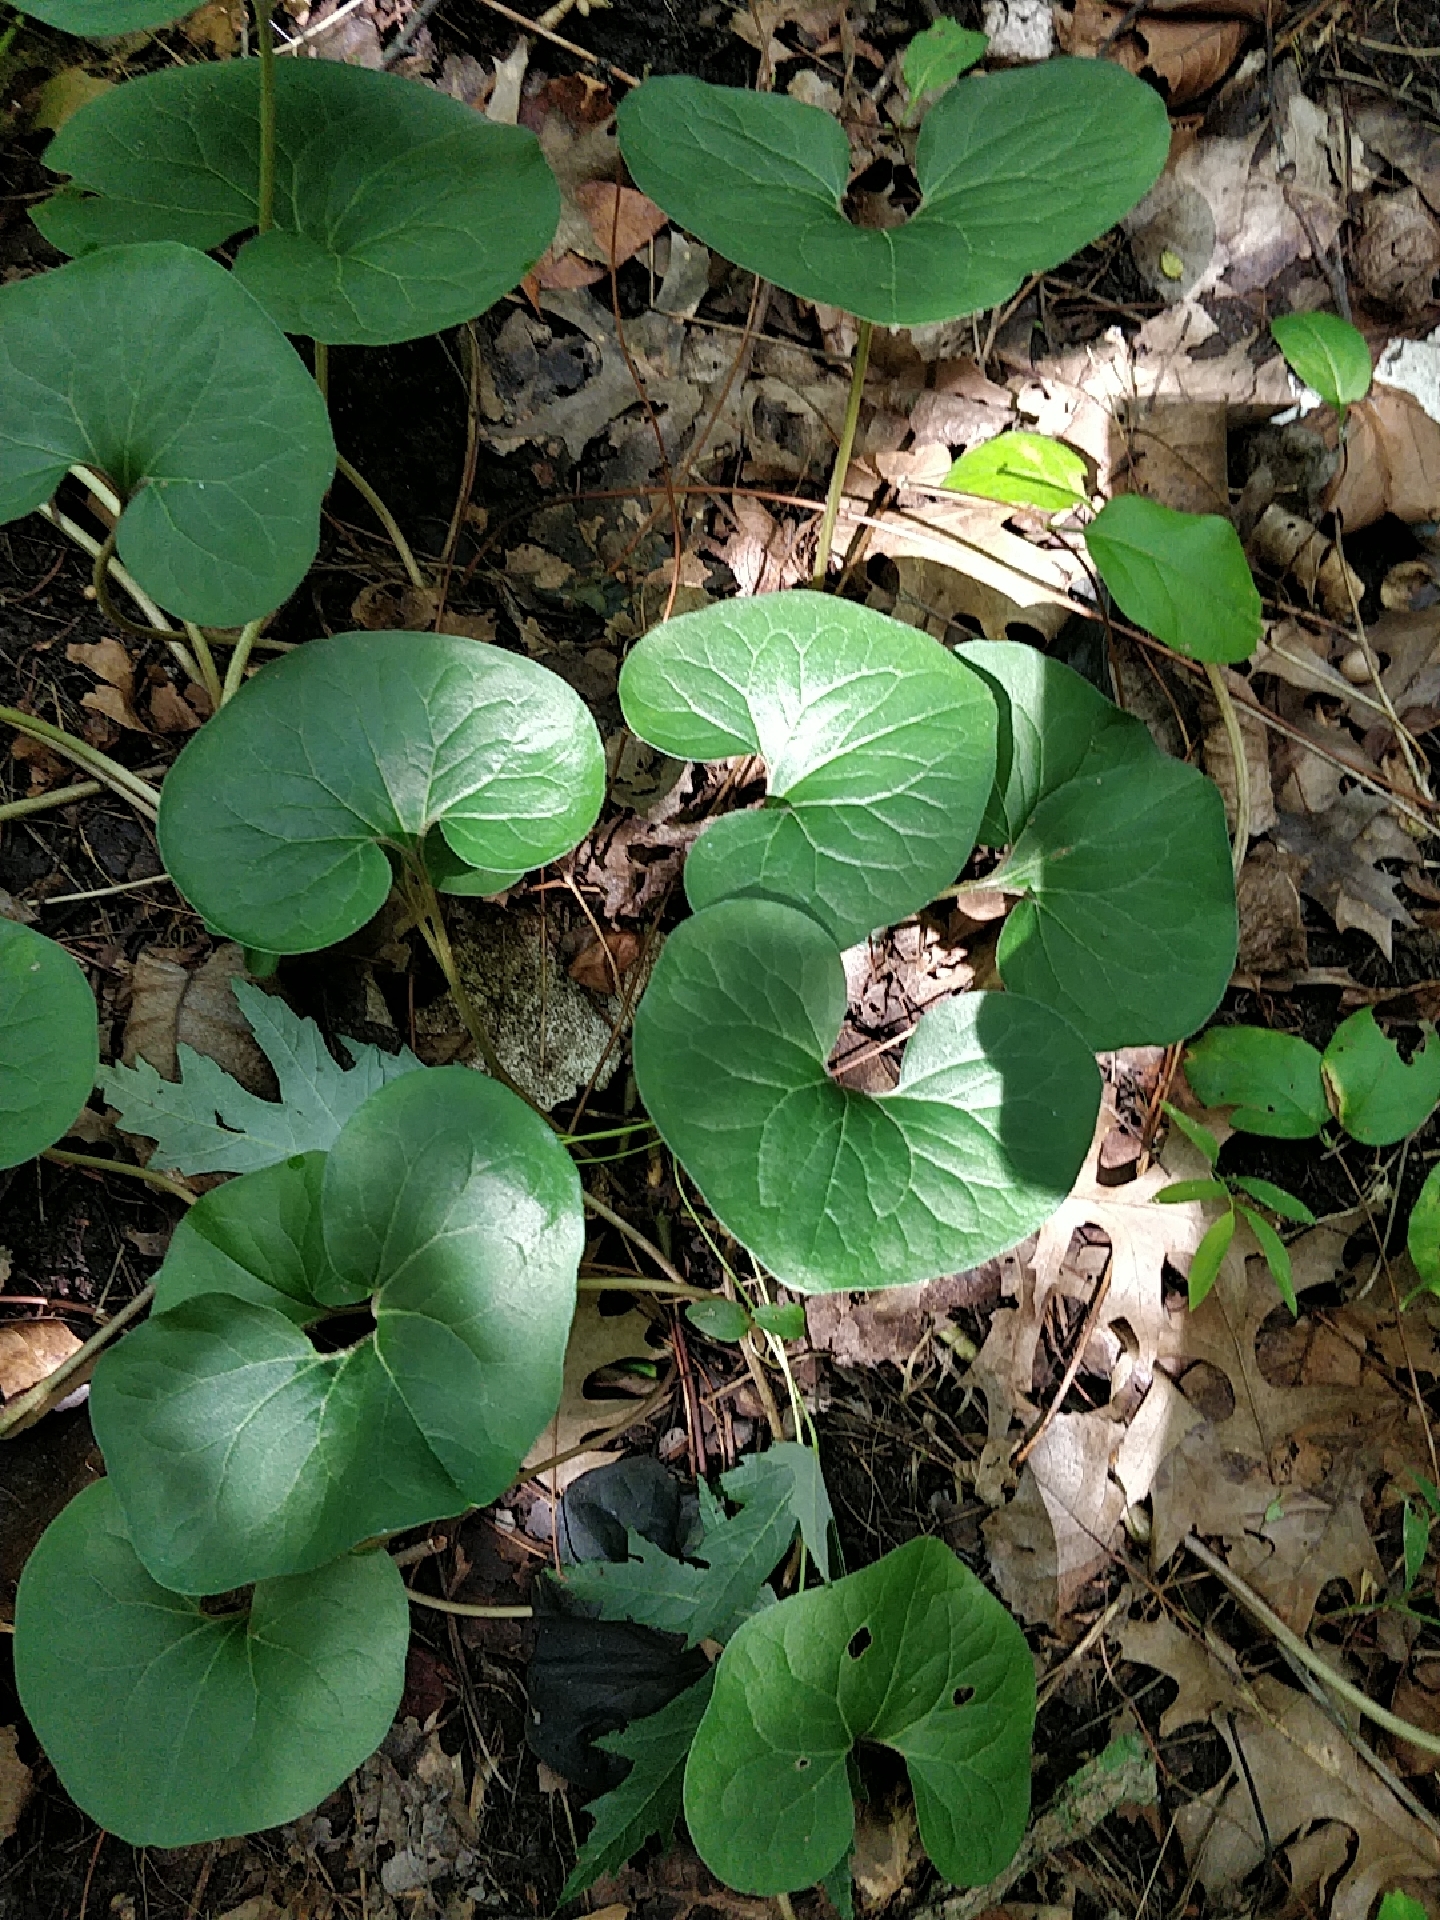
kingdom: Plantae
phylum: Tracheophyta
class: Magnoliopsida
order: Piperales
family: Aristolochiaceae
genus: Asarum
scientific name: Asarum canadense
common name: Wild ginger
